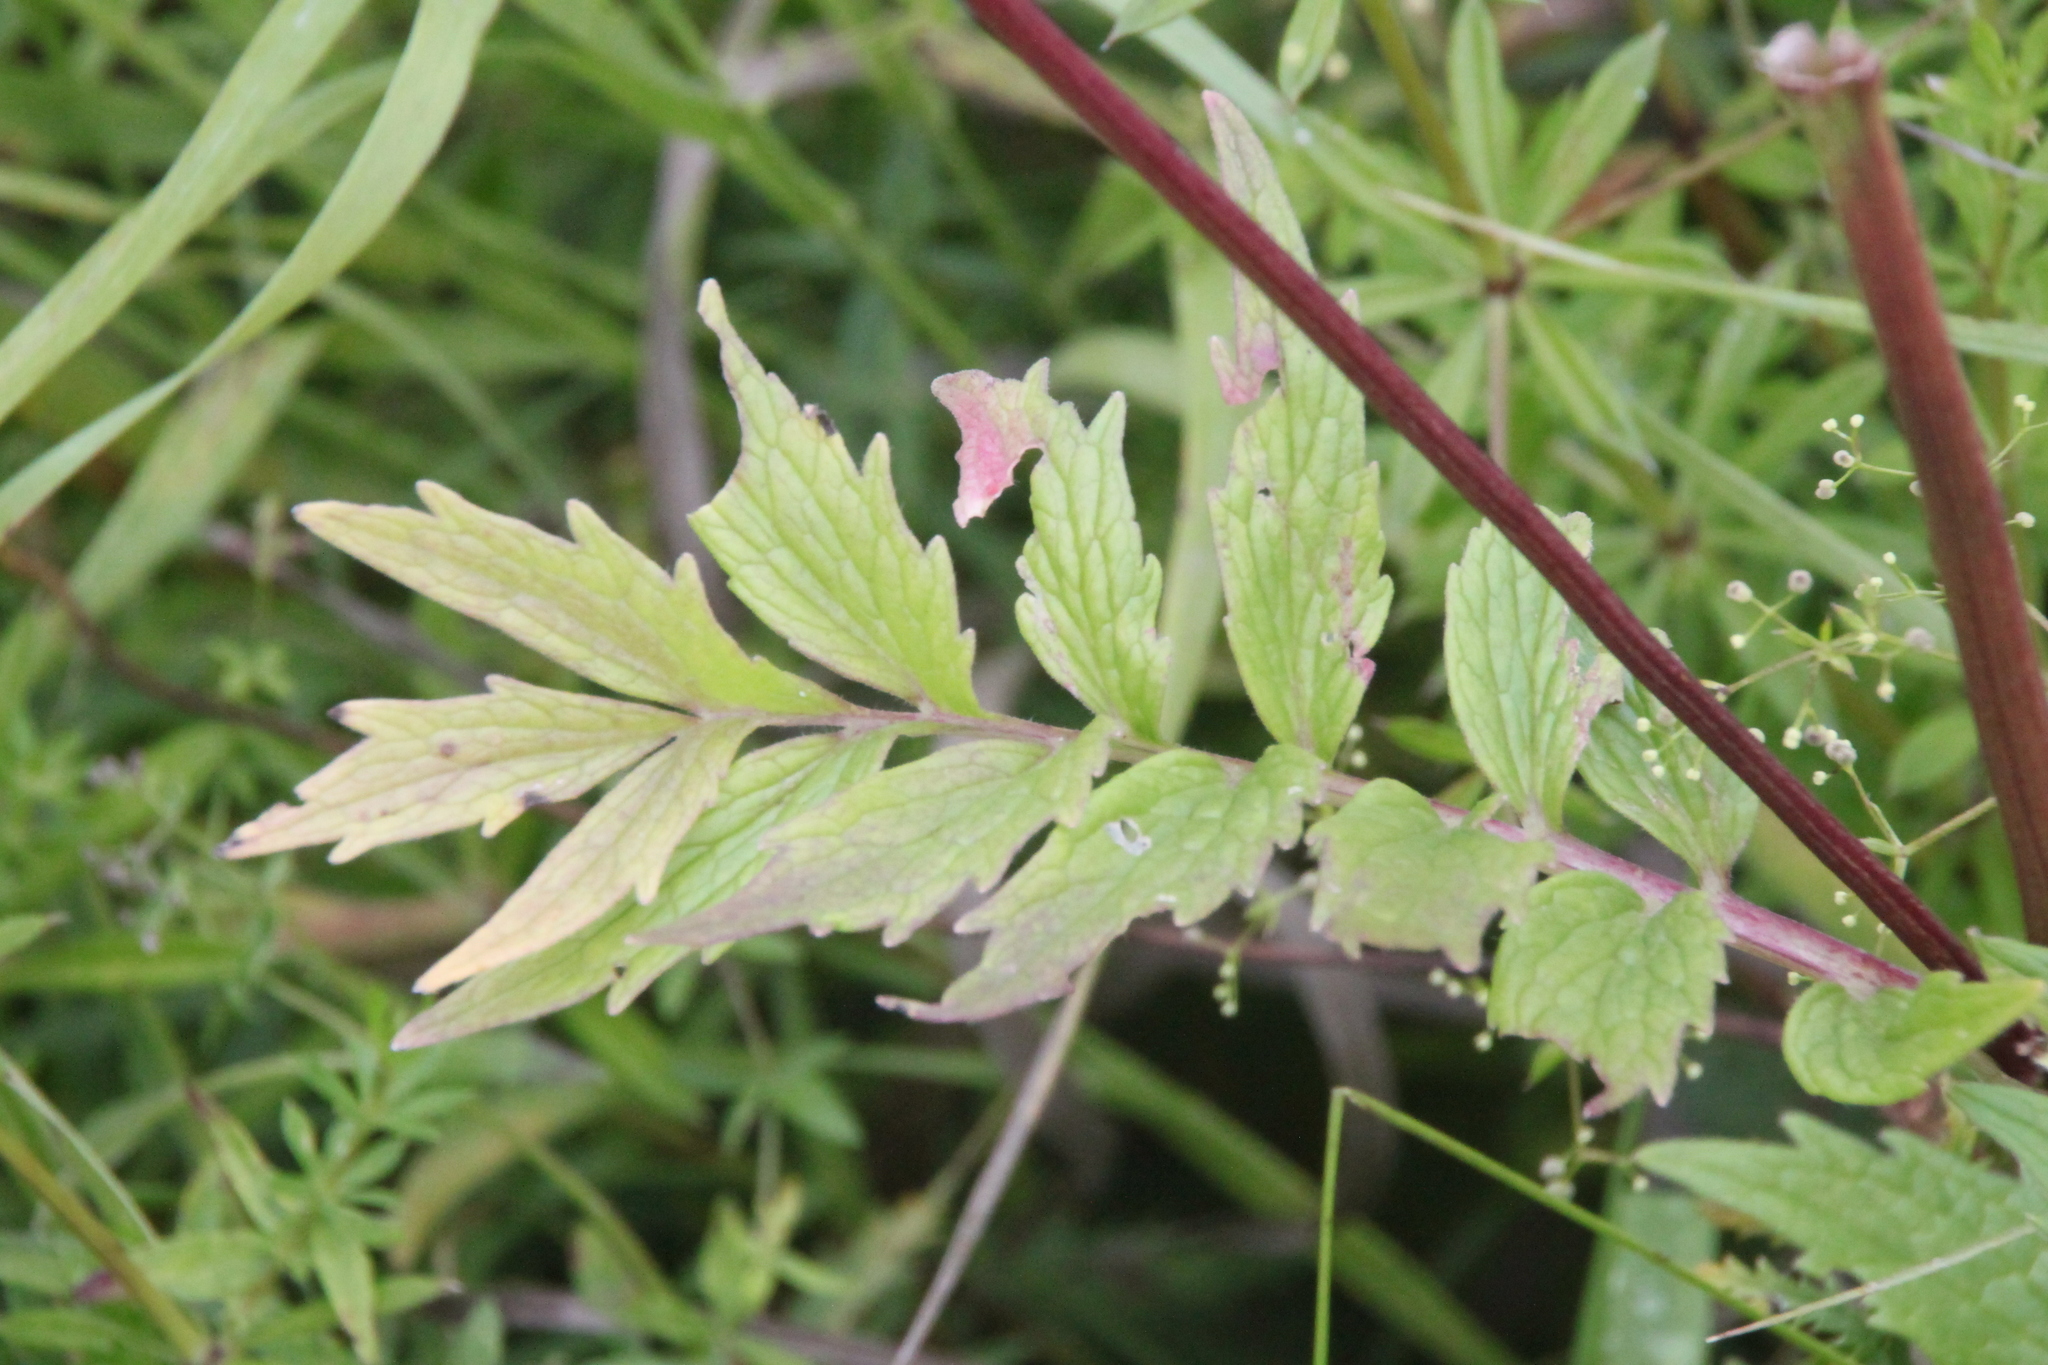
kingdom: Plantae
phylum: Tracheophyta
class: Magnoliopsida
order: Dipsacales
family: Caprifoliaceae
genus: Valeriana
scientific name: Valeriana officinalis
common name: Common valerian
